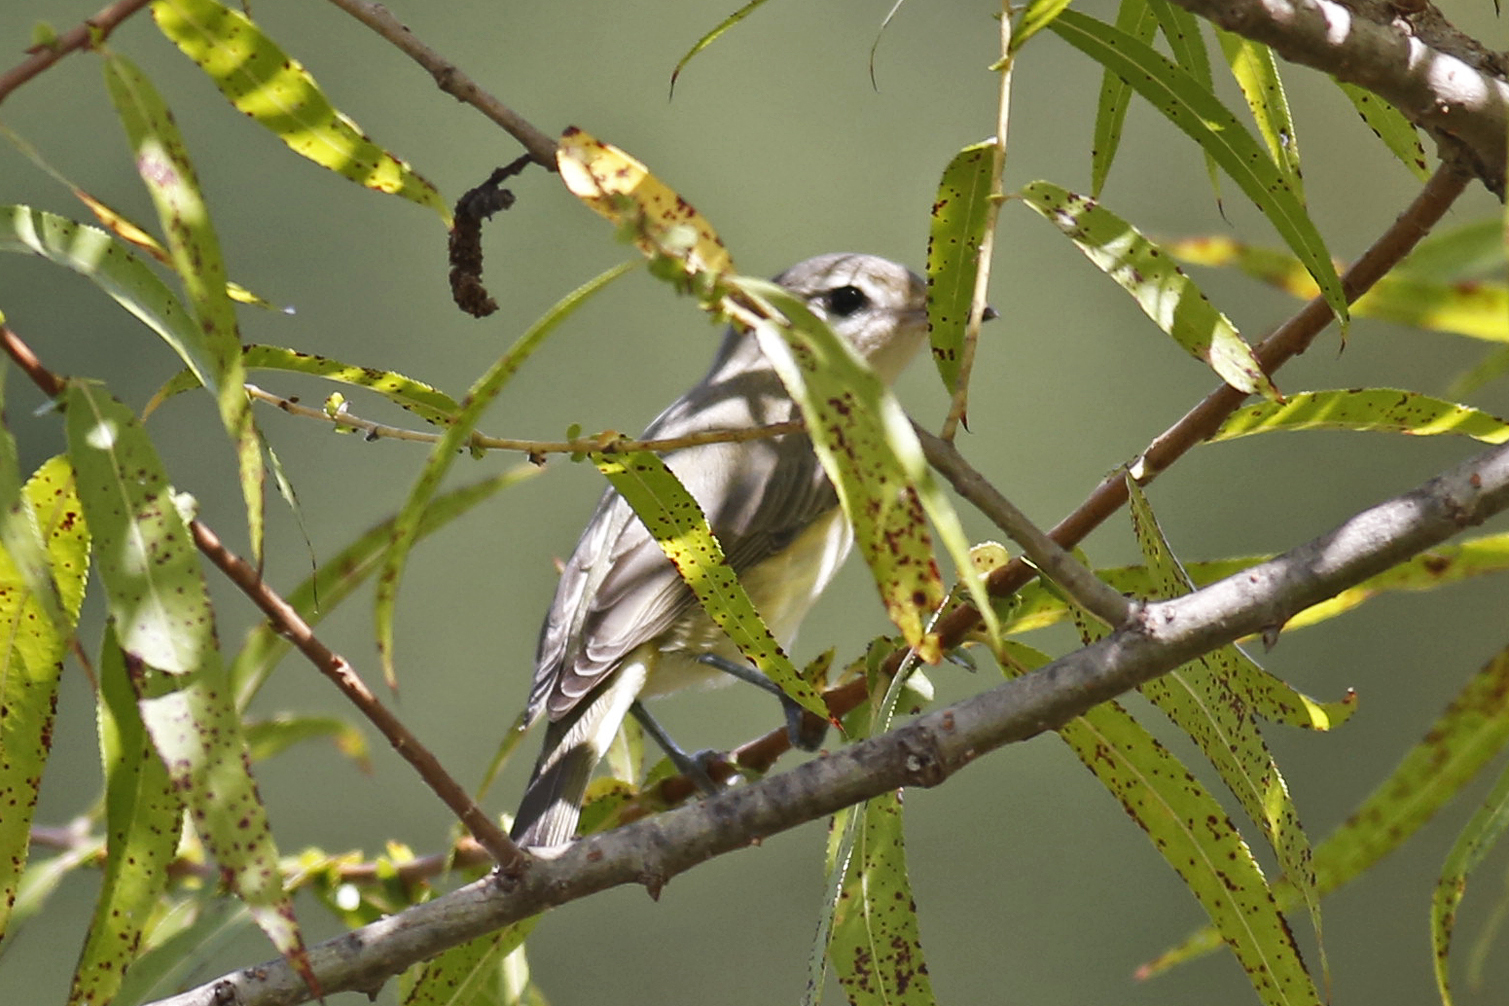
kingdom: Animalia
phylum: Chordata
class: Aves
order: Passeriformes
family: Vireonidae
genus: Vireo
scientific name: Vireo gilvus
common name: Warbling vireo
